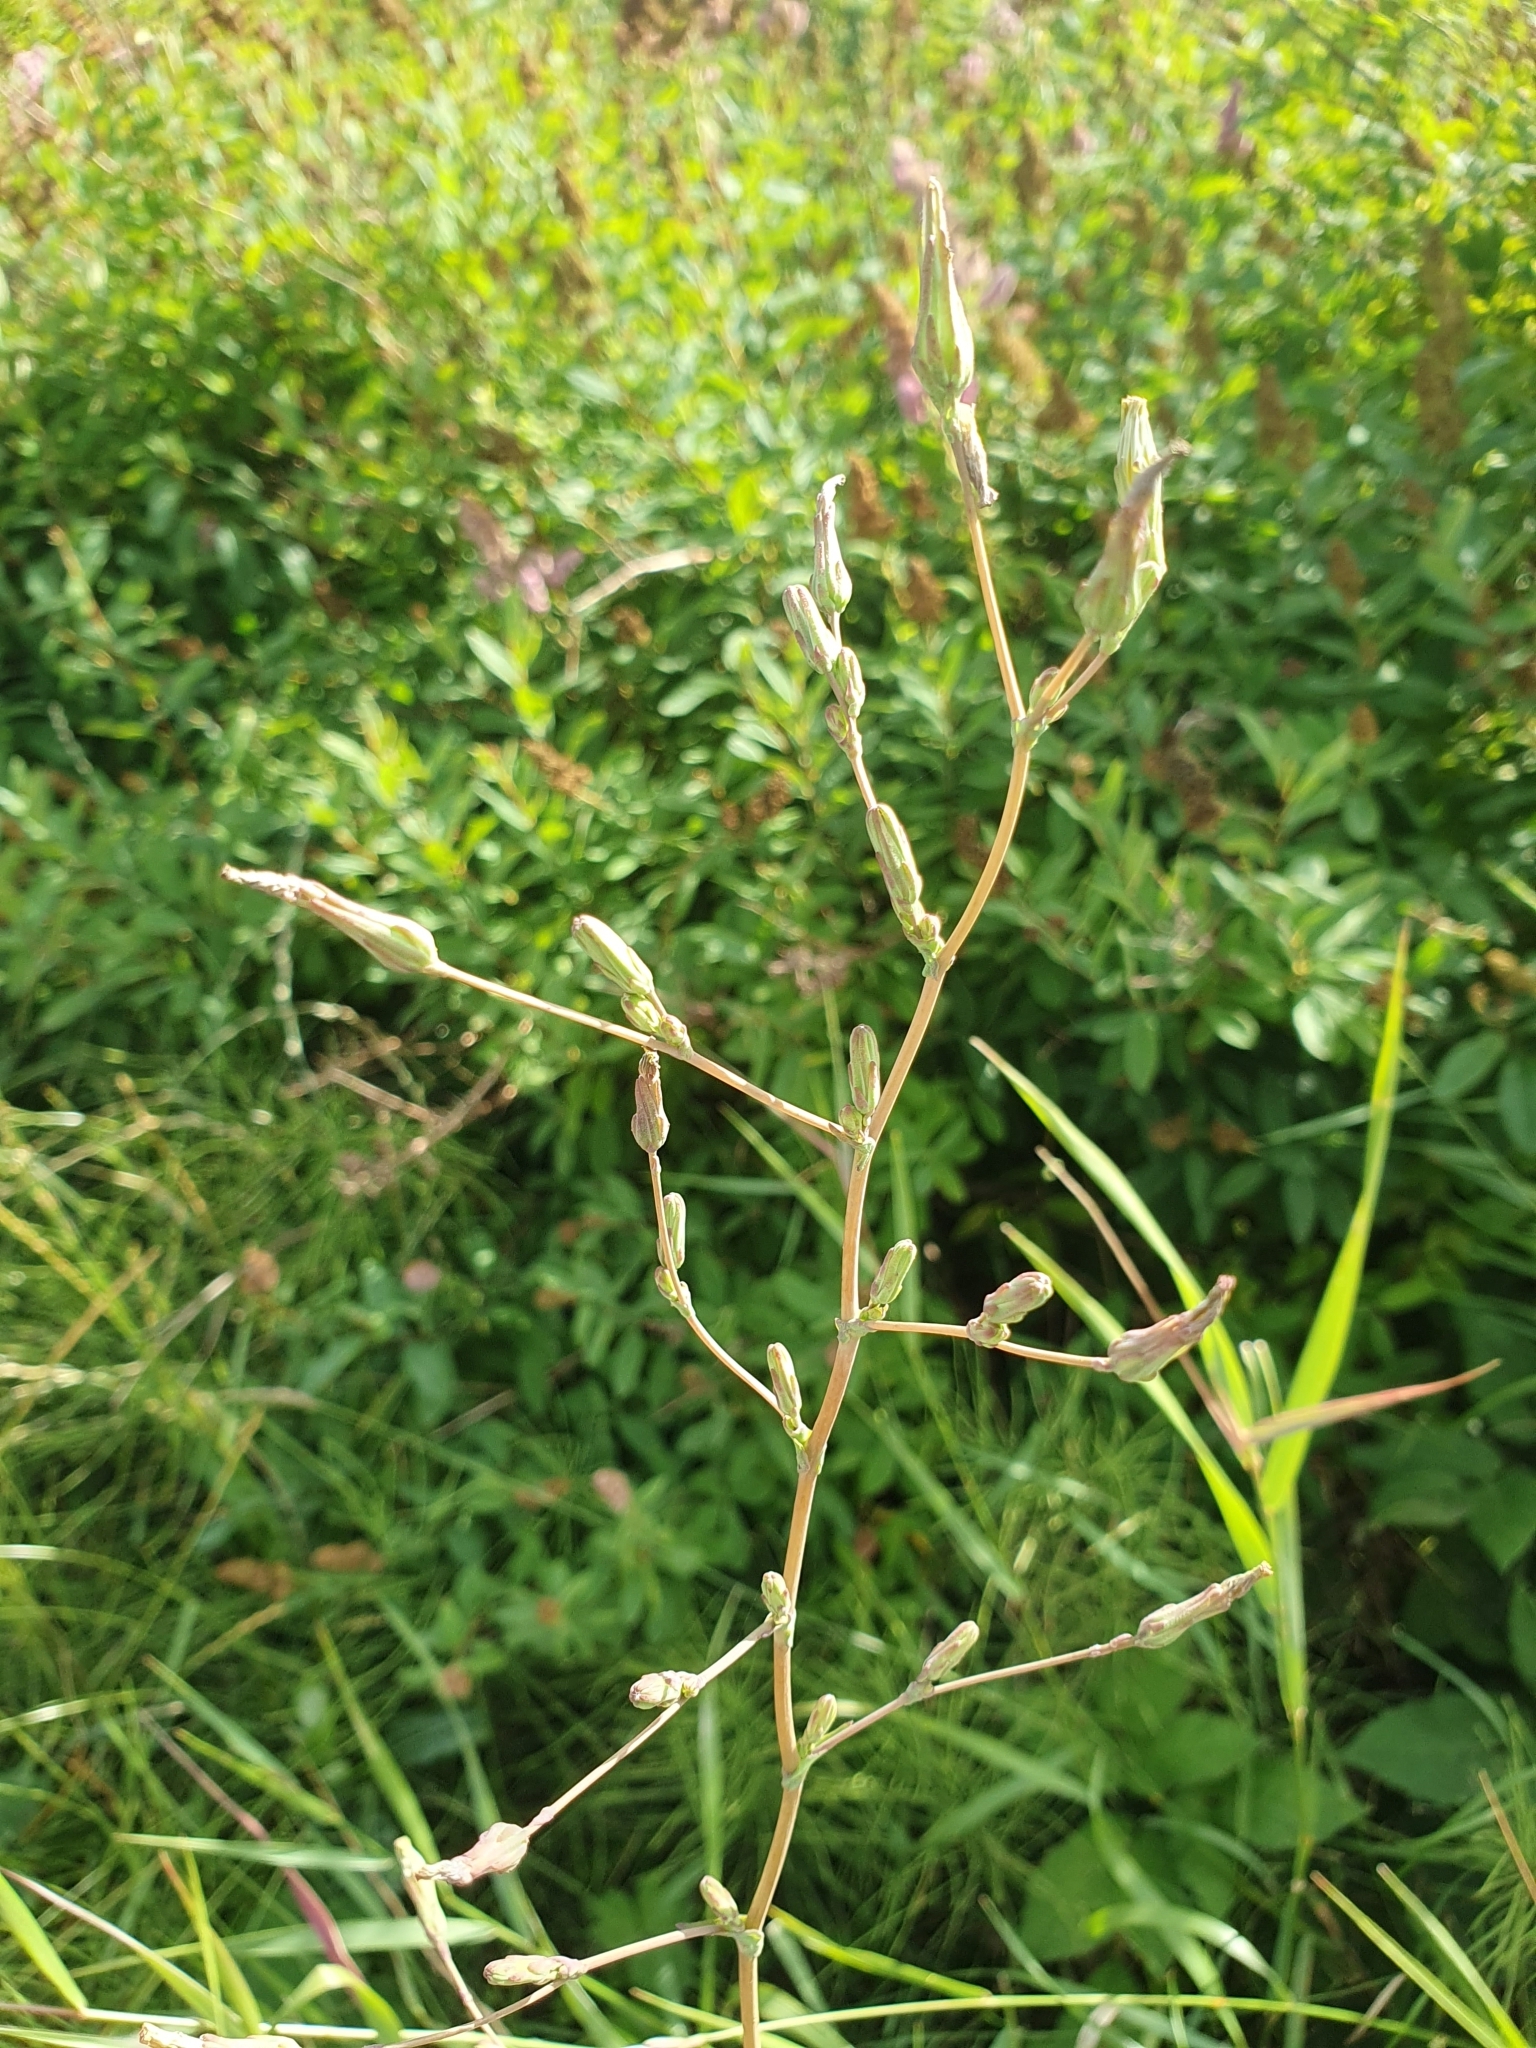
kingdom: Plantae
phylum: Tracheophyta
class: Magnoliopsida
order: Asterales
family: Asteraceae
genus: Lactuca
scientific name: Lactuca serriola
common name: Prickly lettuce
